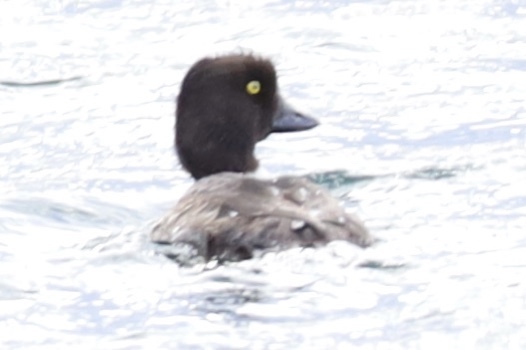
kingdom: Animalia
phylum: Chordata
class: Aves
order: Anseriformes
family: Anatidae
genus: Bucephala
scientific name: Bucephala clangula
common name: Common goldeneye
